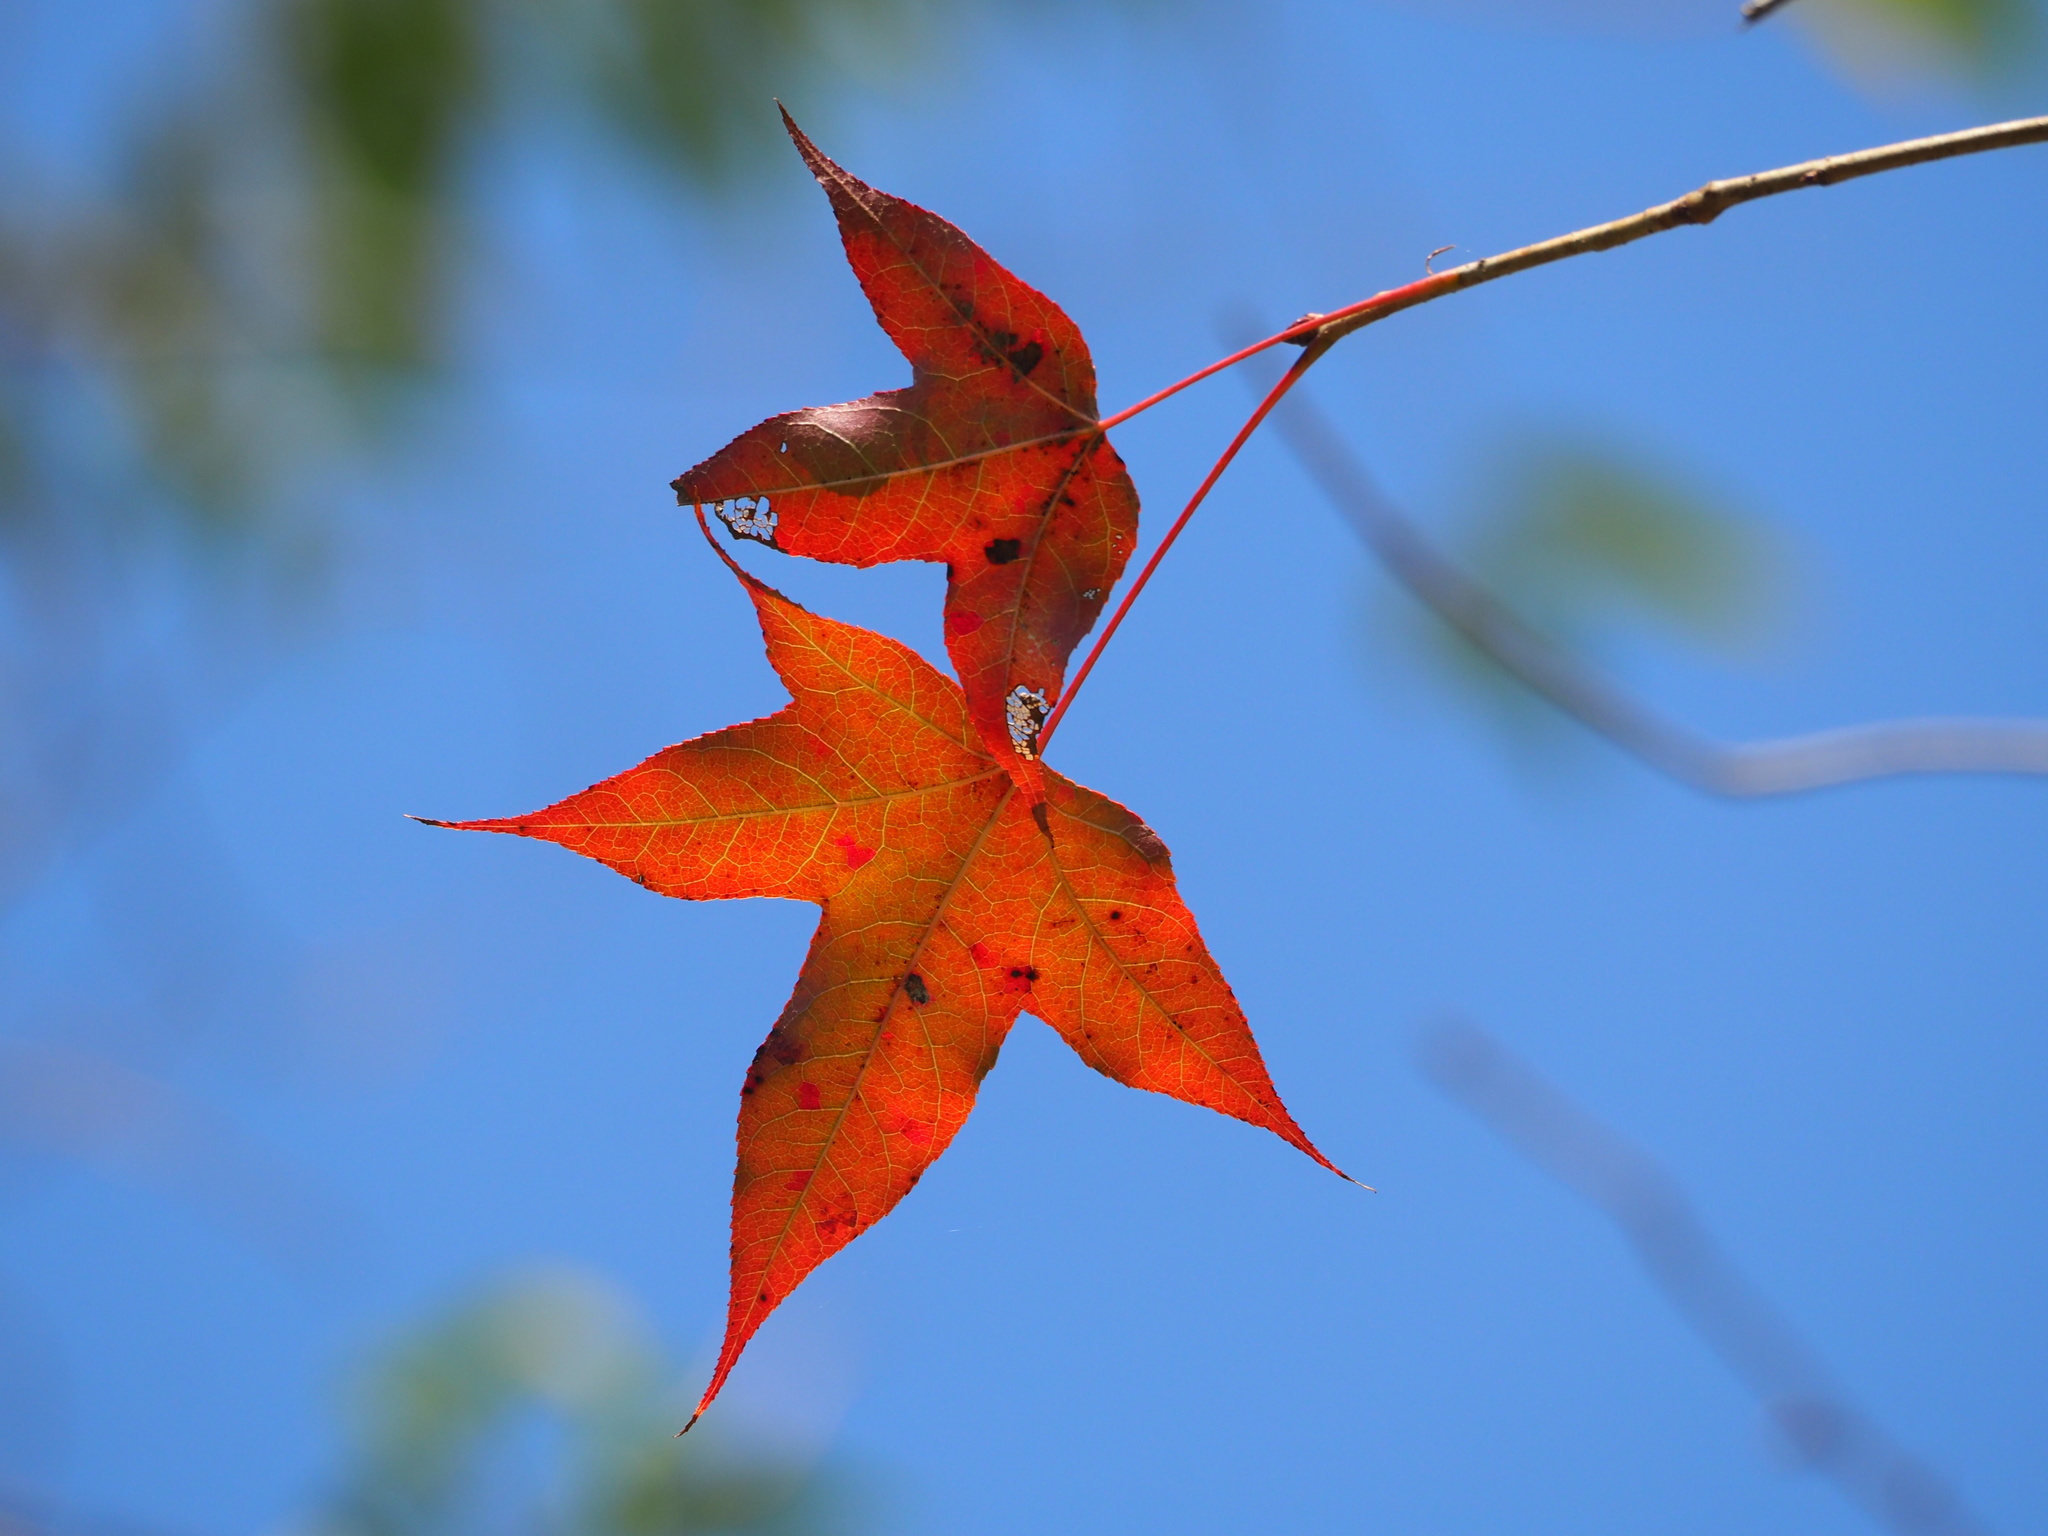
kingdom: Plantae
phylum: Tracheophyta
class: Magnoliopsida
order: Saxifragales
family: Altingiaceae
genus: Liquidambar
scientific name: Liquidambar formosana
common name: Chinese sweet gum
